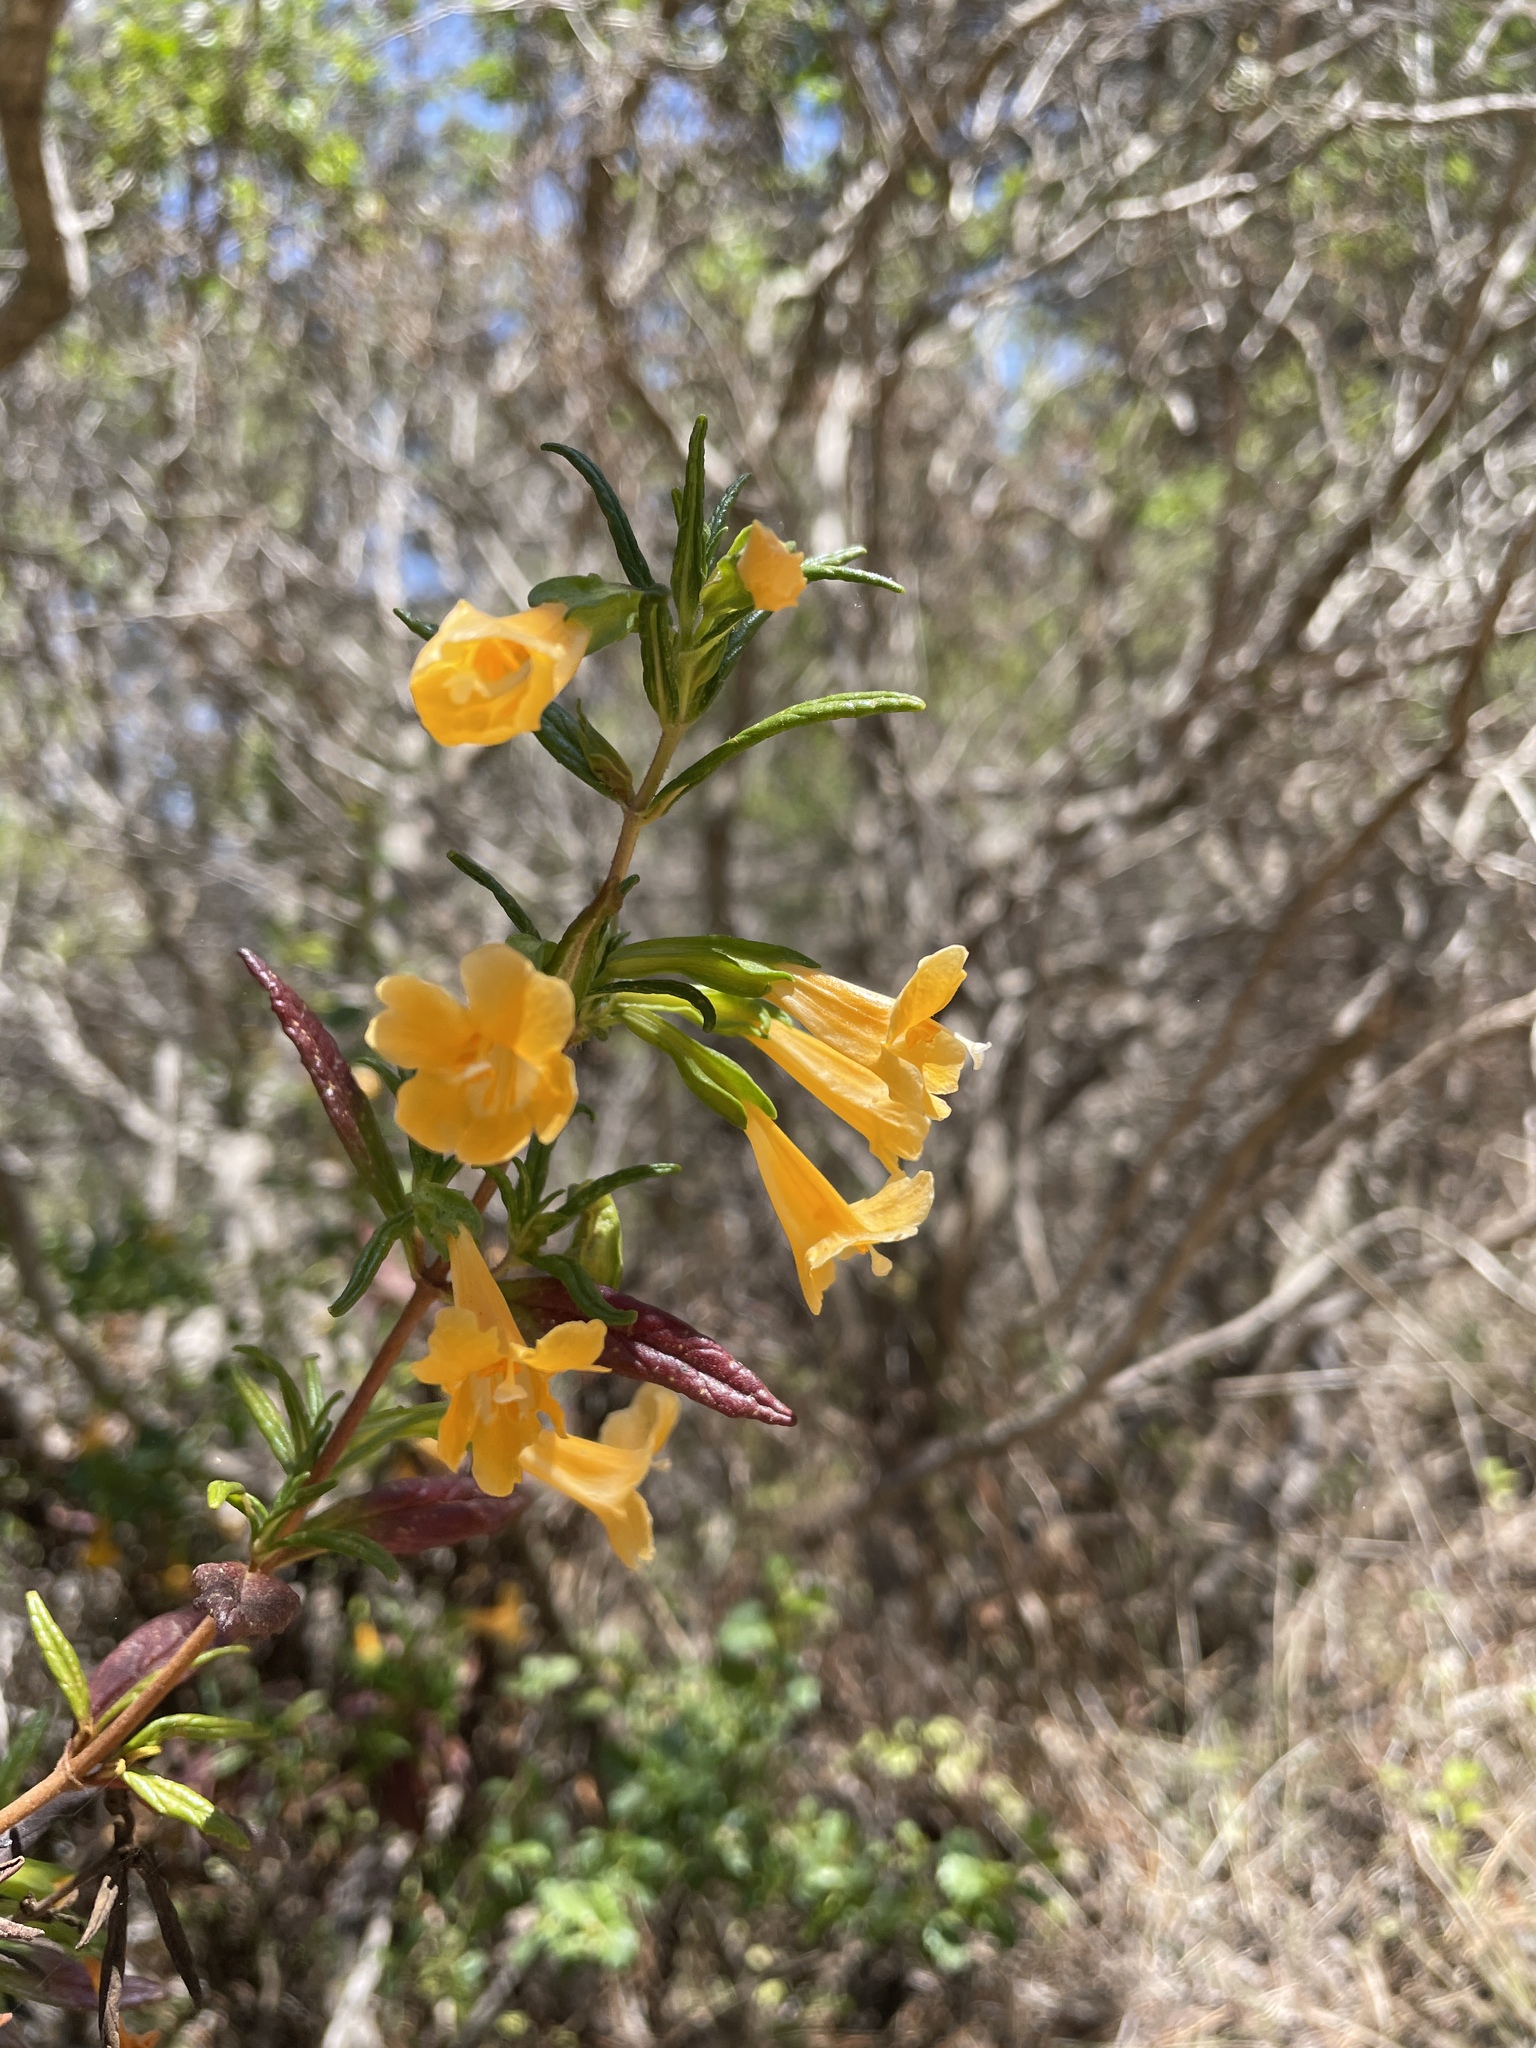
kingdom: Plantae
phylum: Tracheophyta
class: Magnoliopsida
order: Lamiales
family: Phrymaceae
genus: Diplacus
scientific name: Diplacus aurantiacus
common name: Bush monkey-flower
